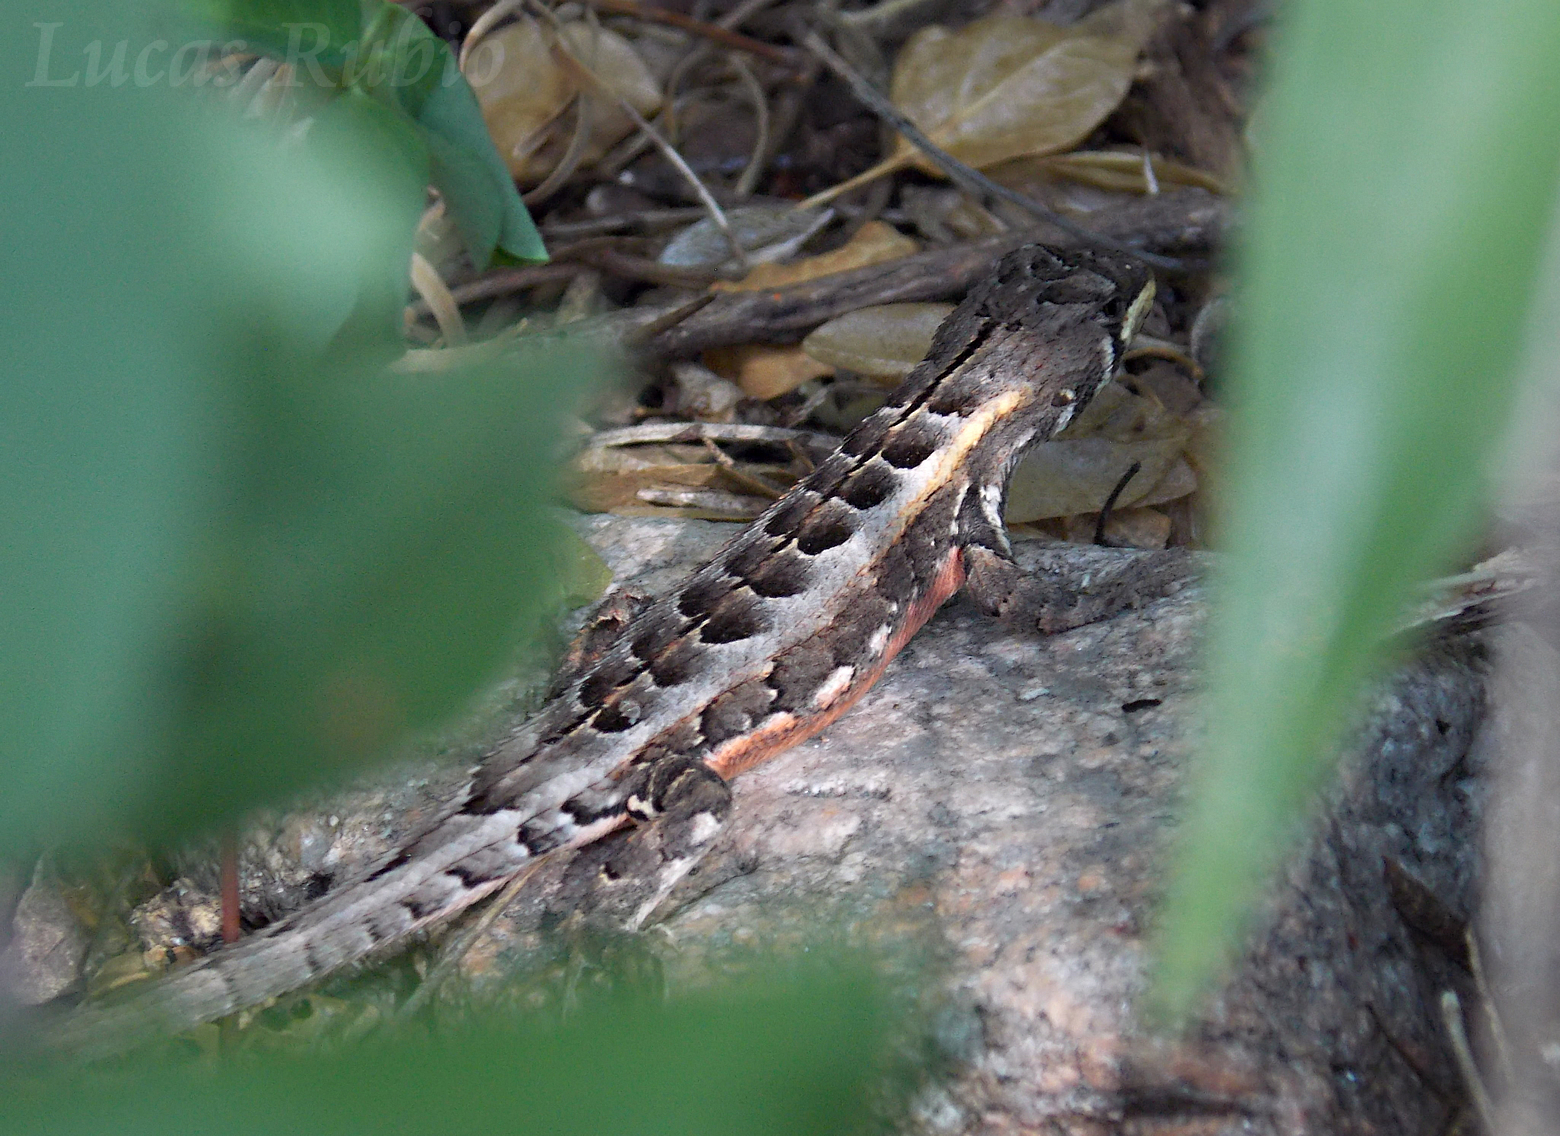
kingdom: Animalia
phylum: Chordata
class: Squamata
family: Tropiduridae
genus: Stenocercus
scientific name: Stenocercus doellojuradoi
